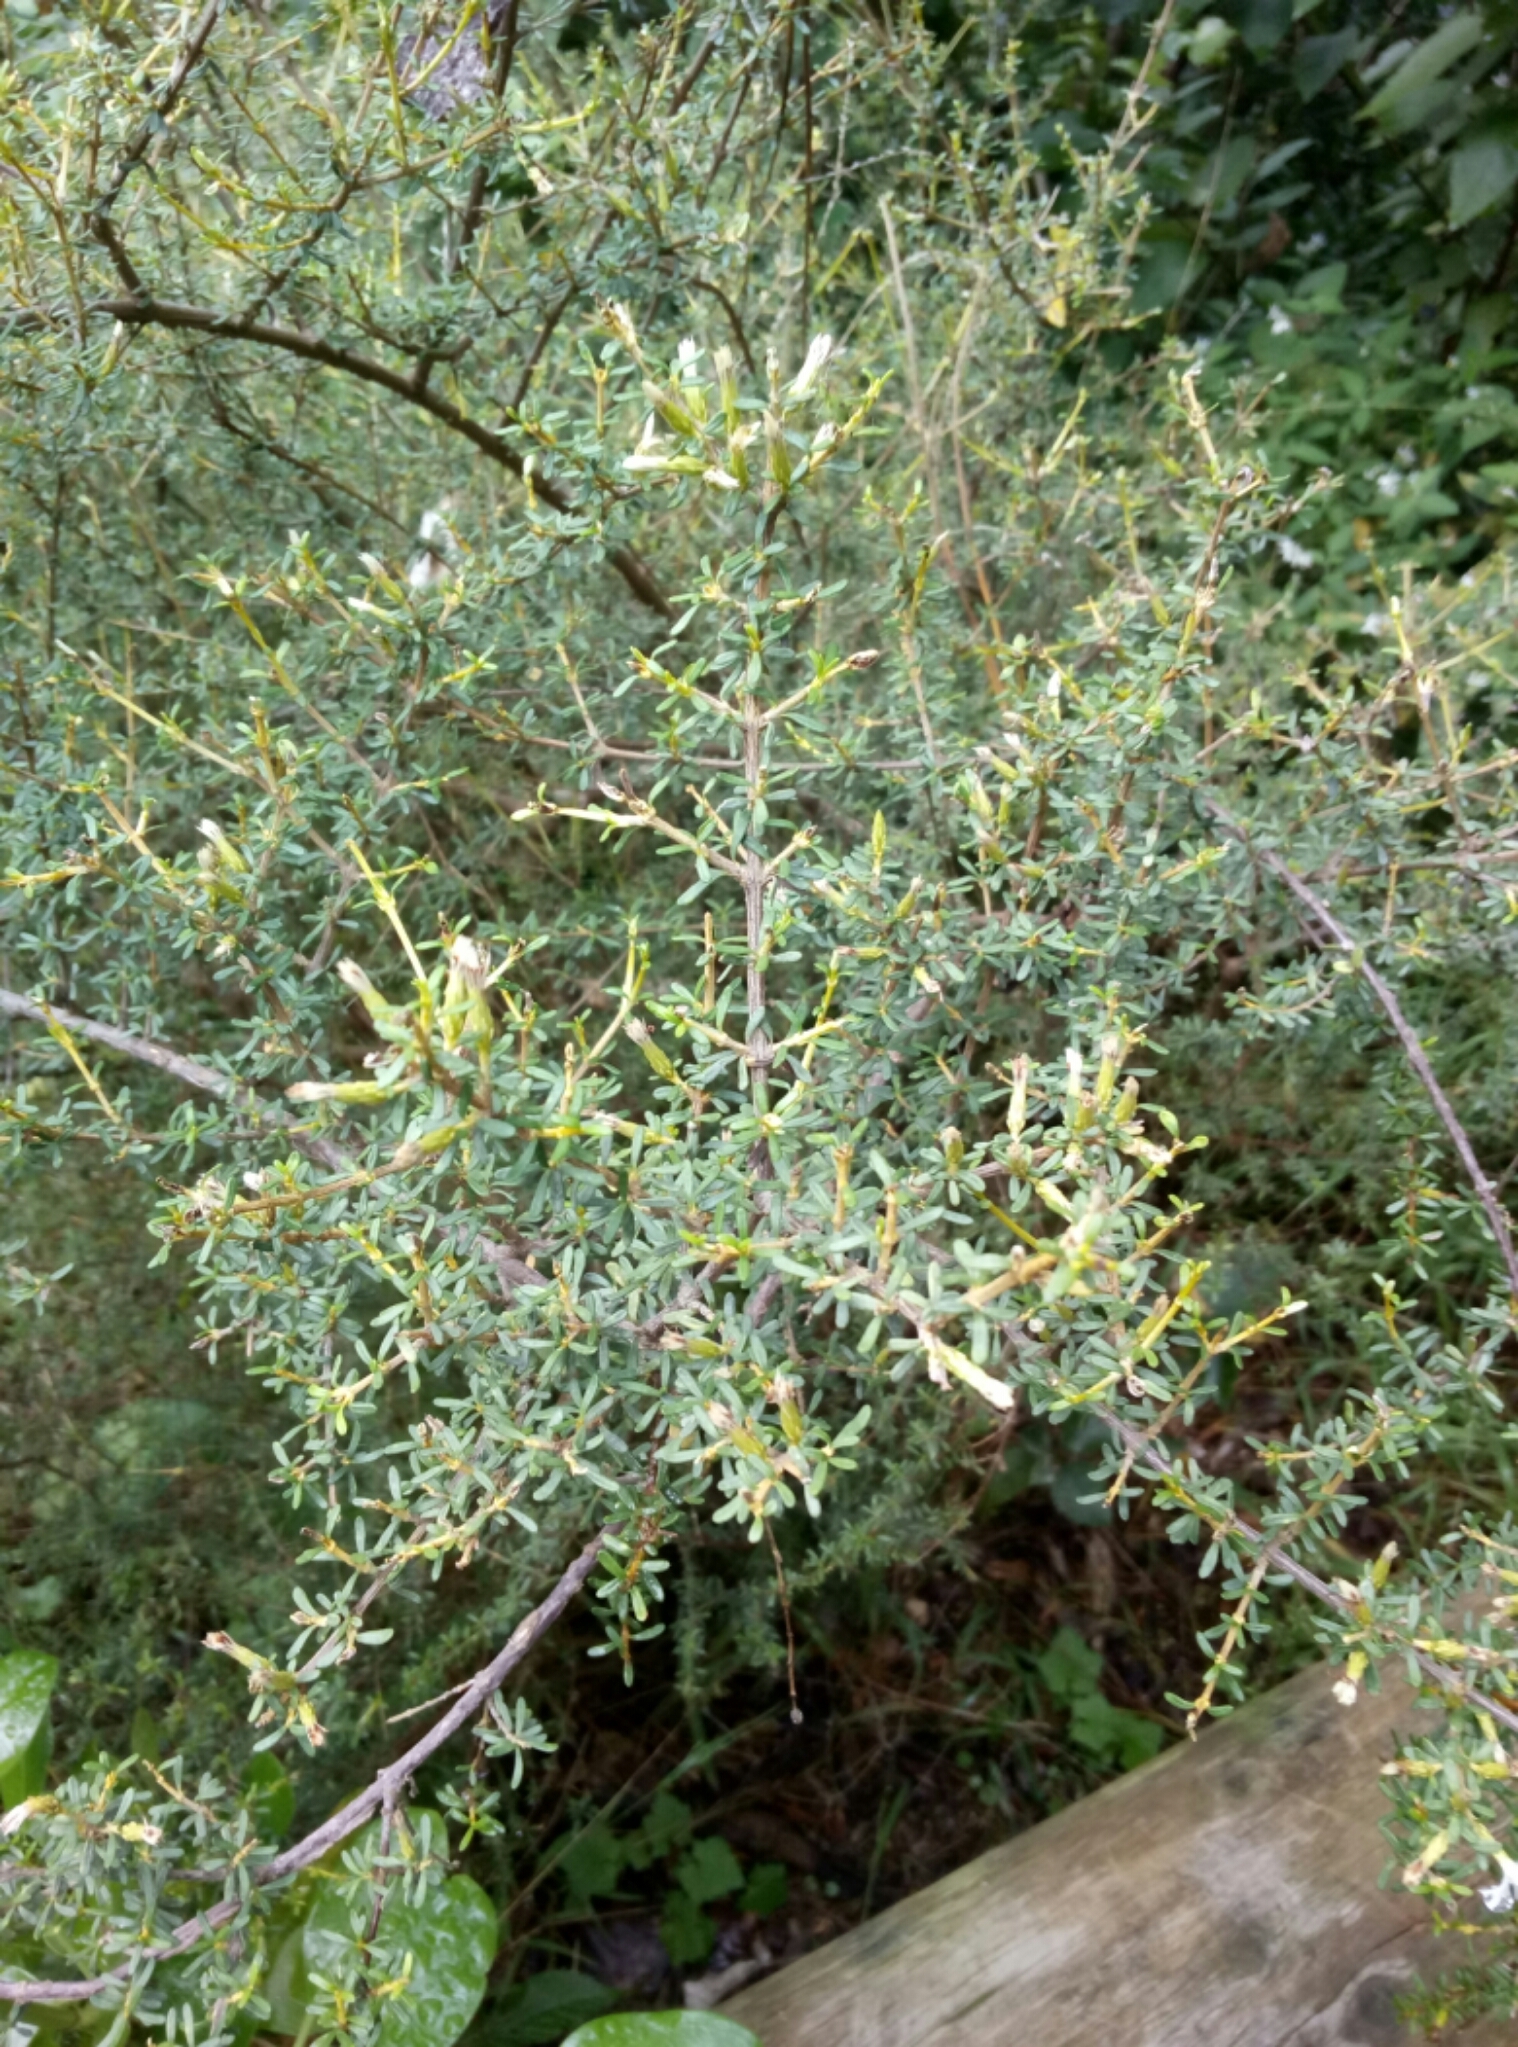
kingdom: Plantae
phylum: Tracheophyta
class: Magnoliopsida
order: Asterales
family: Asteraceae
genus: Olearia
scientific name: Olearia solandri
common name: Coastal daisybush
